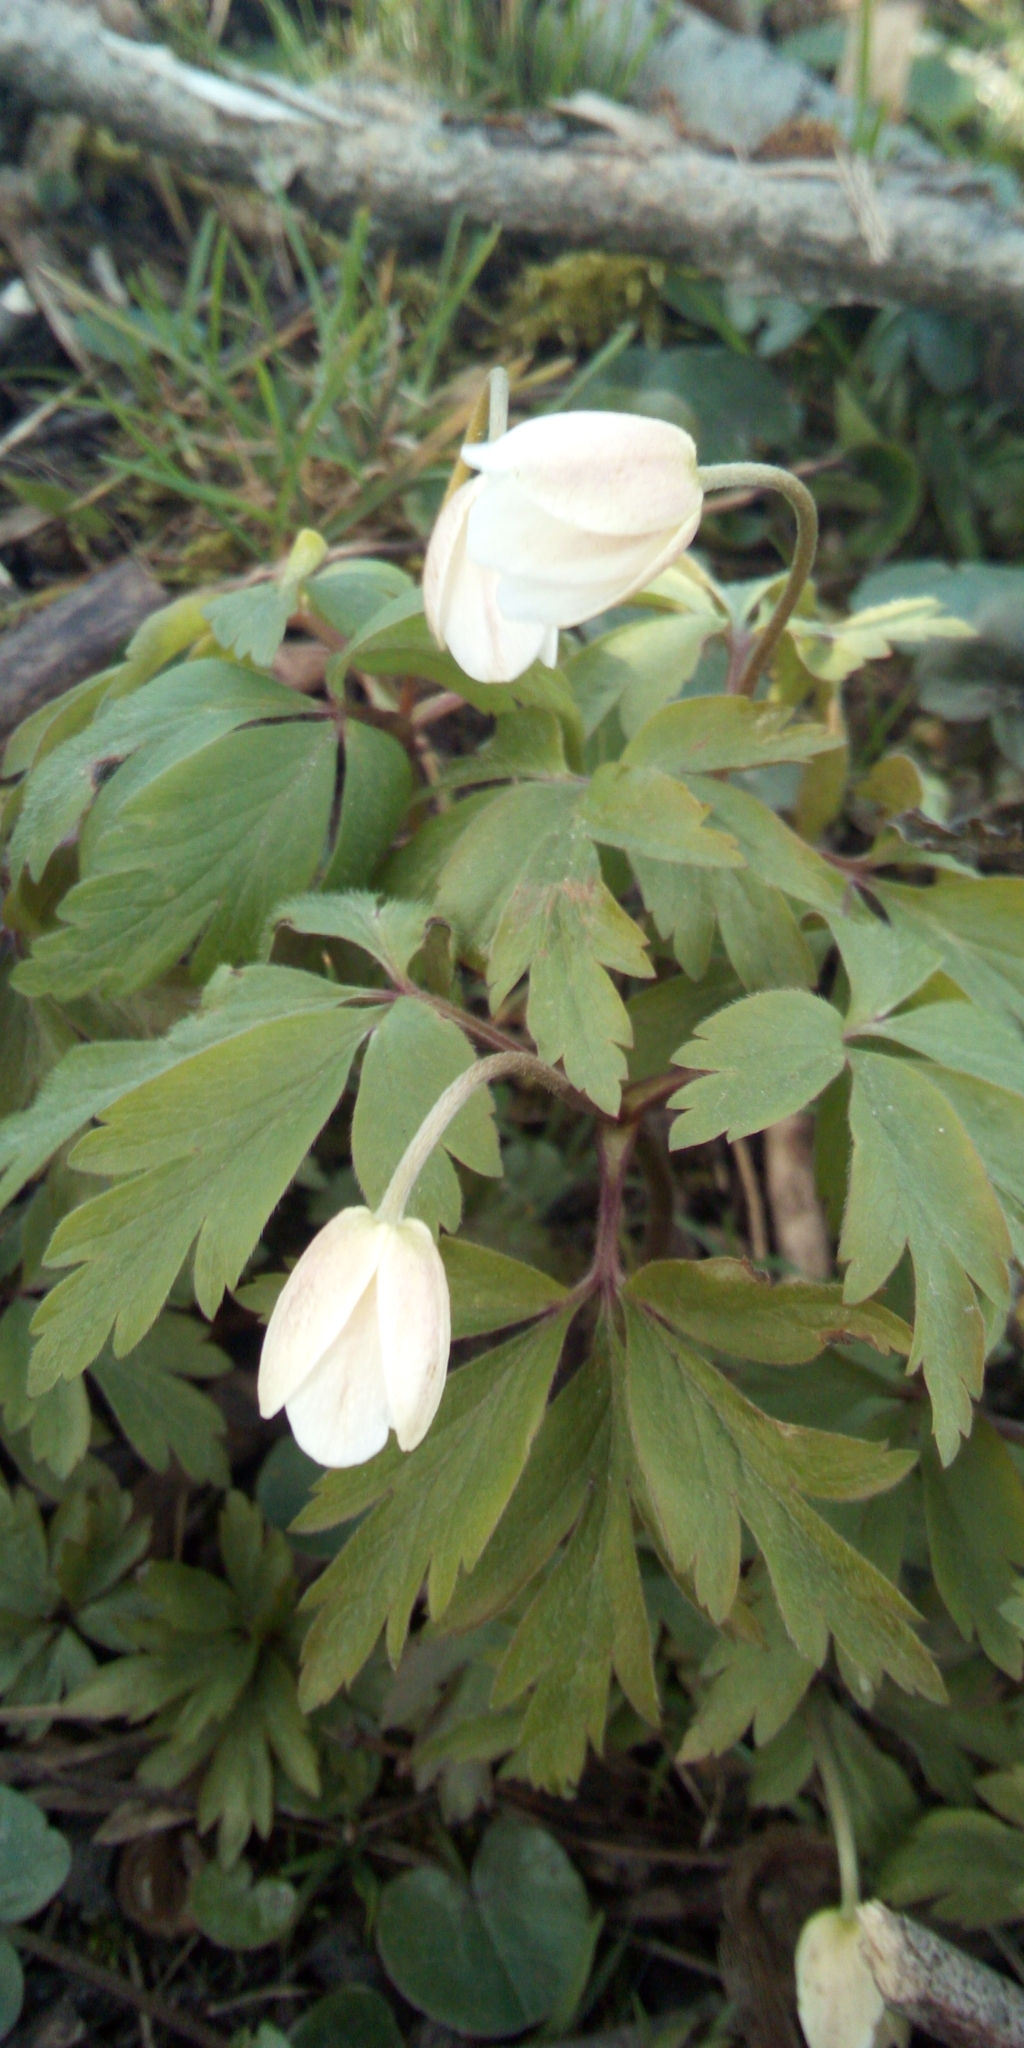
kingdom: Plantae
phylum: Tracheophyta
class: Magnoliopsida
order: Ranunculales
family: Ranunculaceae
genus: Anemone
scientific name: Anemone nemorosa
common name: Wood anemone
